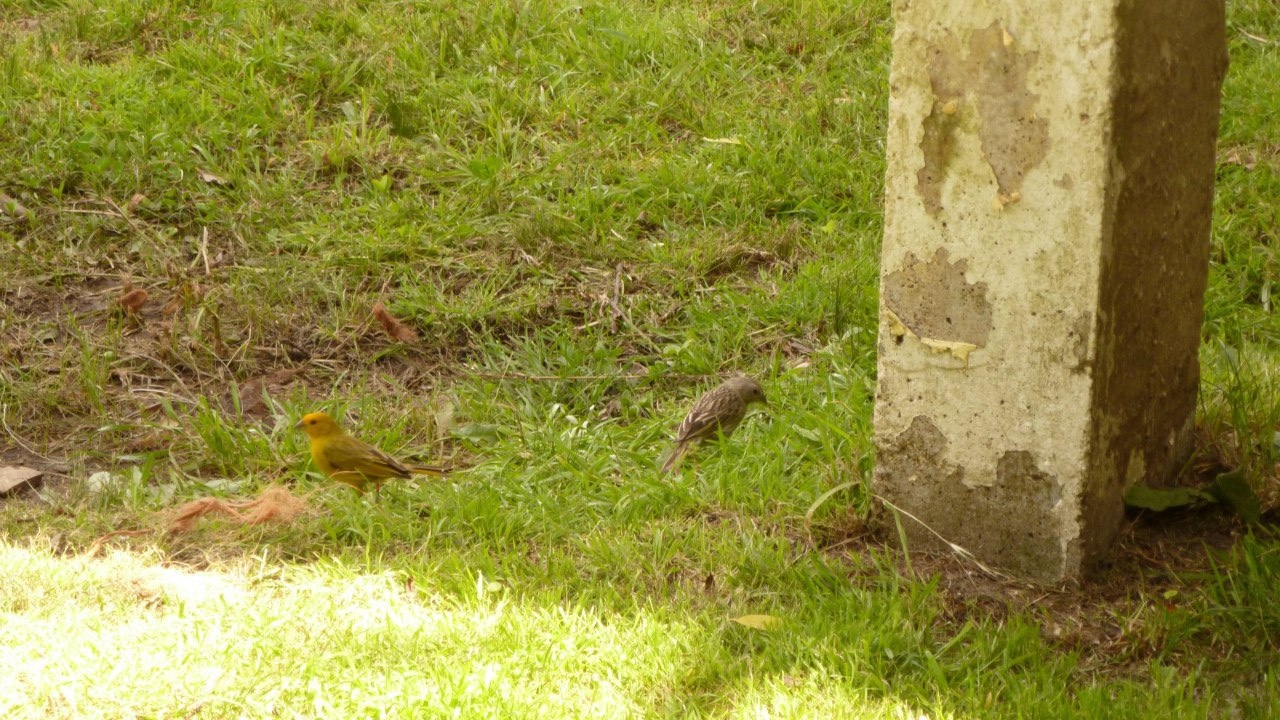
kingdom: Animalia
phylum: Chordata
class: Aves
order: Passeriformes
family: Thraupidae
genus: Sicalis
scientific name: Sicalis flaveola
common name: Saffron finch
